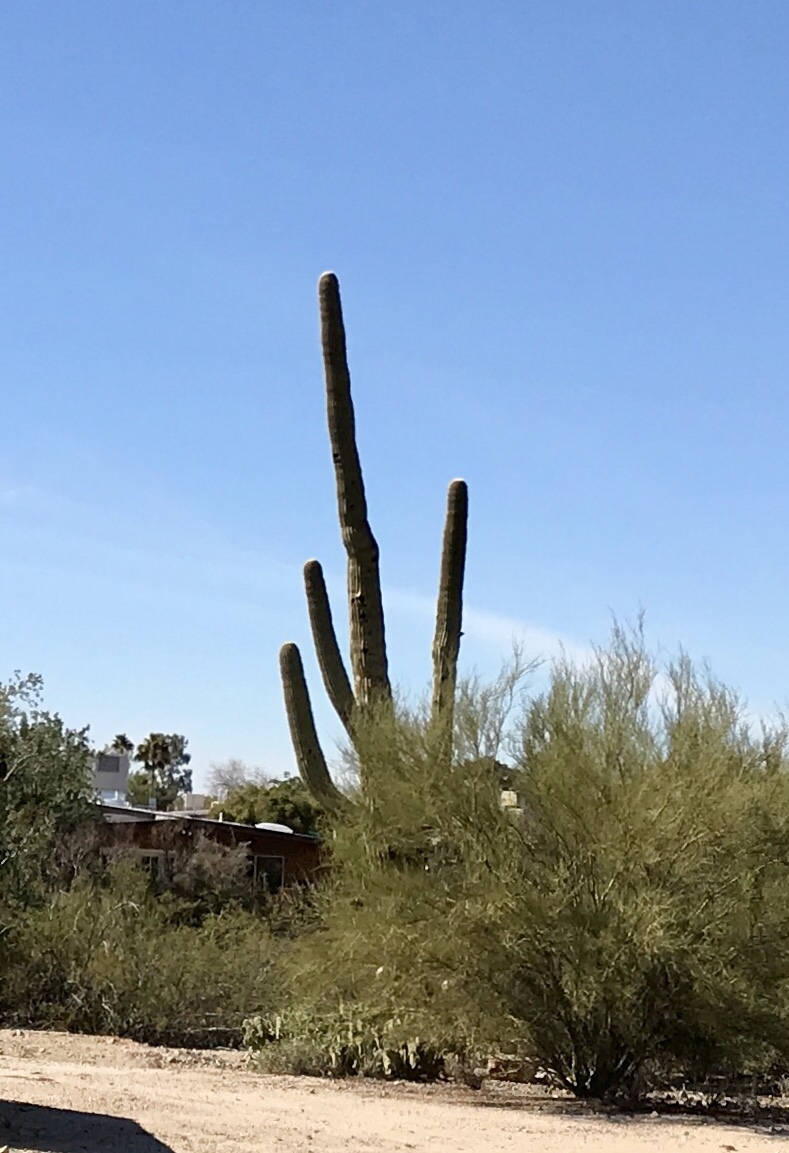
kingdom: Plantae
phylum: Tracheophyta
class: Magnoliopsida
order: Caryophyllales
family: Cactaceae
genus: Carnegiea
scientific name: Carnegiea gigantea
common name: Saguaro
